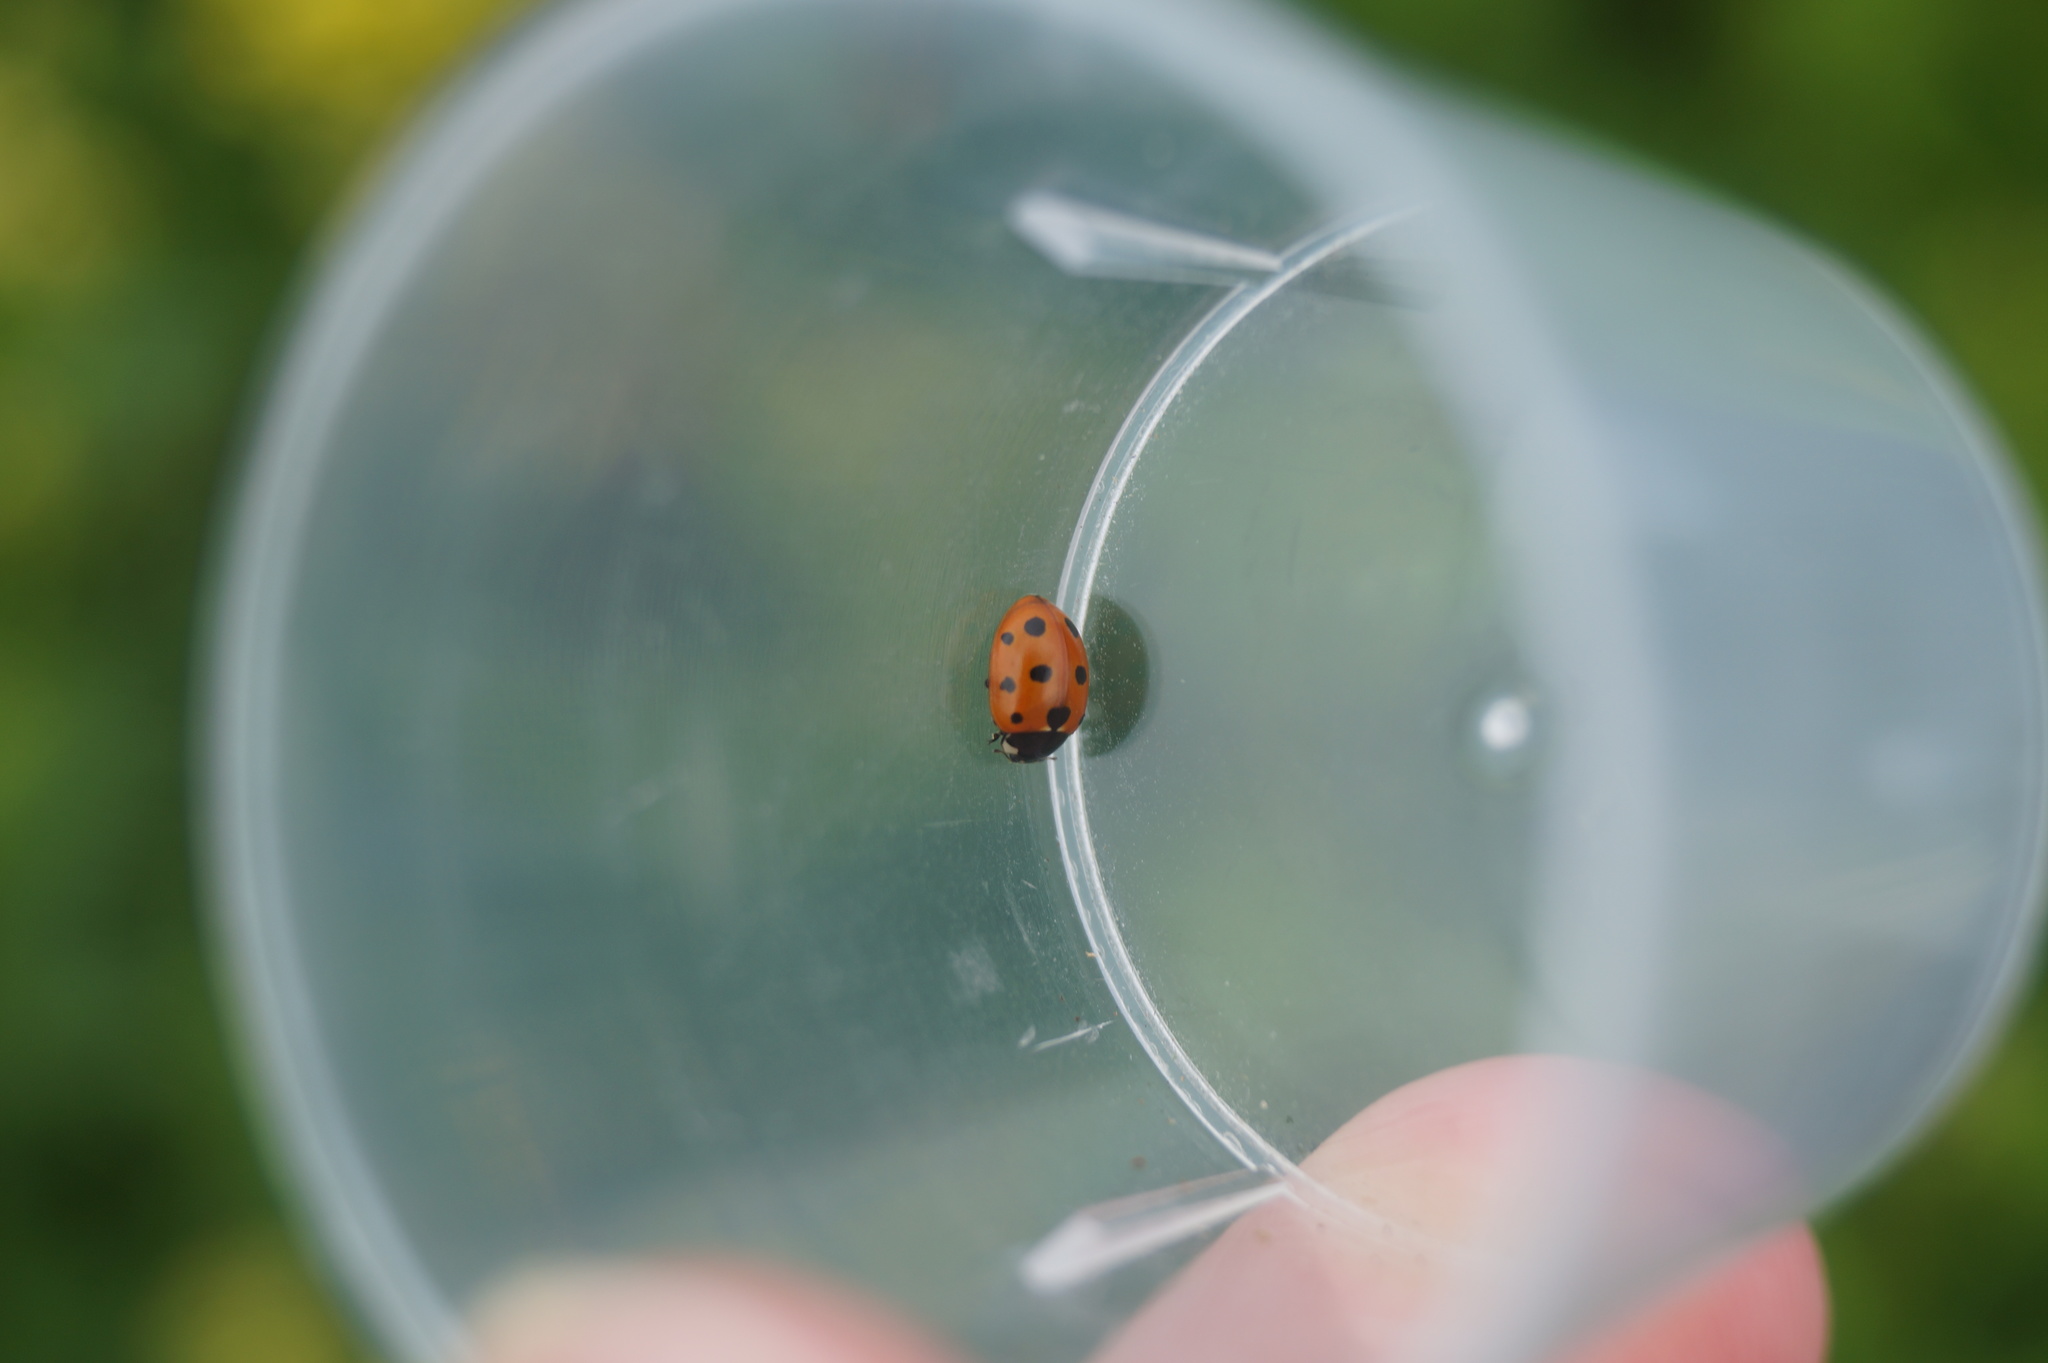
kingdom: Animalia
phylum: Arthropoda
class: Insecta
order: Coleoptera
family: Coccinellidae
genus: Coccinella
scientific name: Coccinella undecimpunctata
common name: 11-spot ladybird
